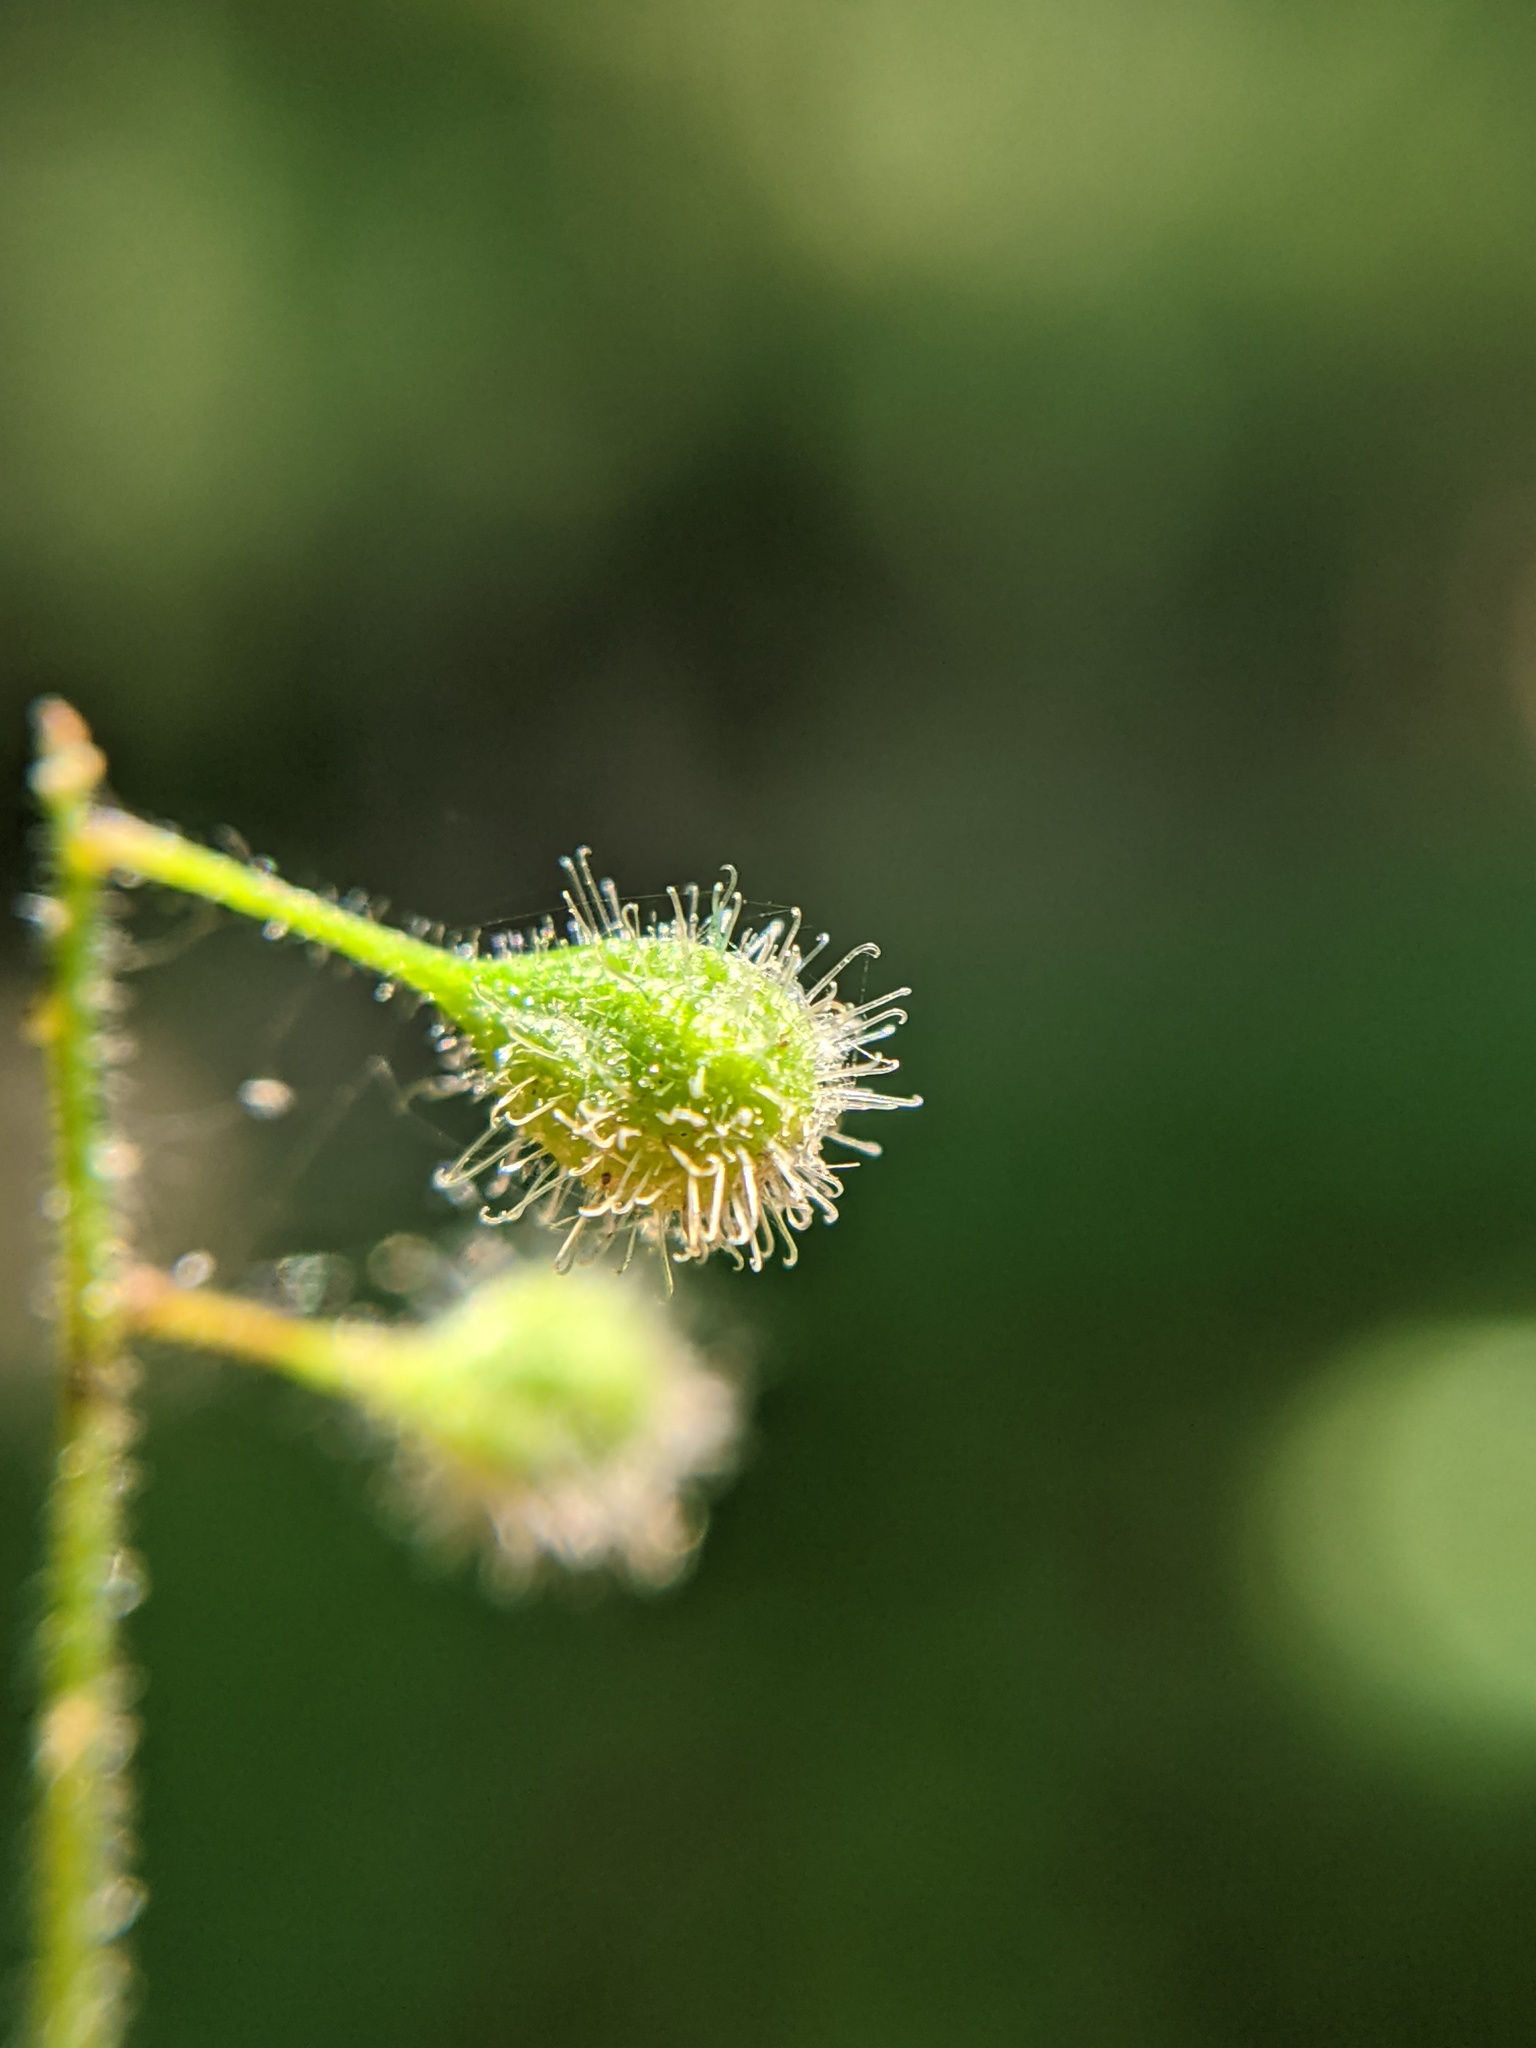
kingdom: Plantae
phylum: Tracheophyta
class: Magnoliopsida
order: Myrtales
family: Onagraceae
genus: Circaea
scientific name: Circaea canadensis
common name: Broad-leaved enchanter's nightshade
